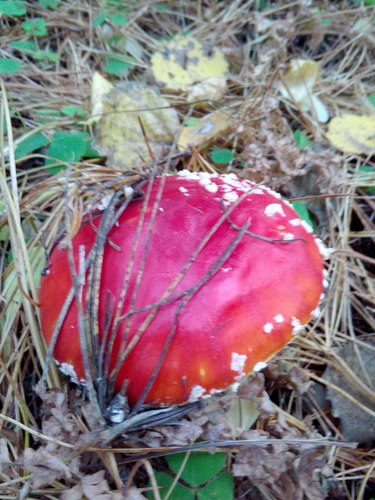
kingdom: Fungi
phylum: Basidiomycota
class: Agaricomycetes
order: Agaricales
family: Amanitaceae
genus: Amanita
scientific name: Amanita muscaria
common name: Fly agaric
